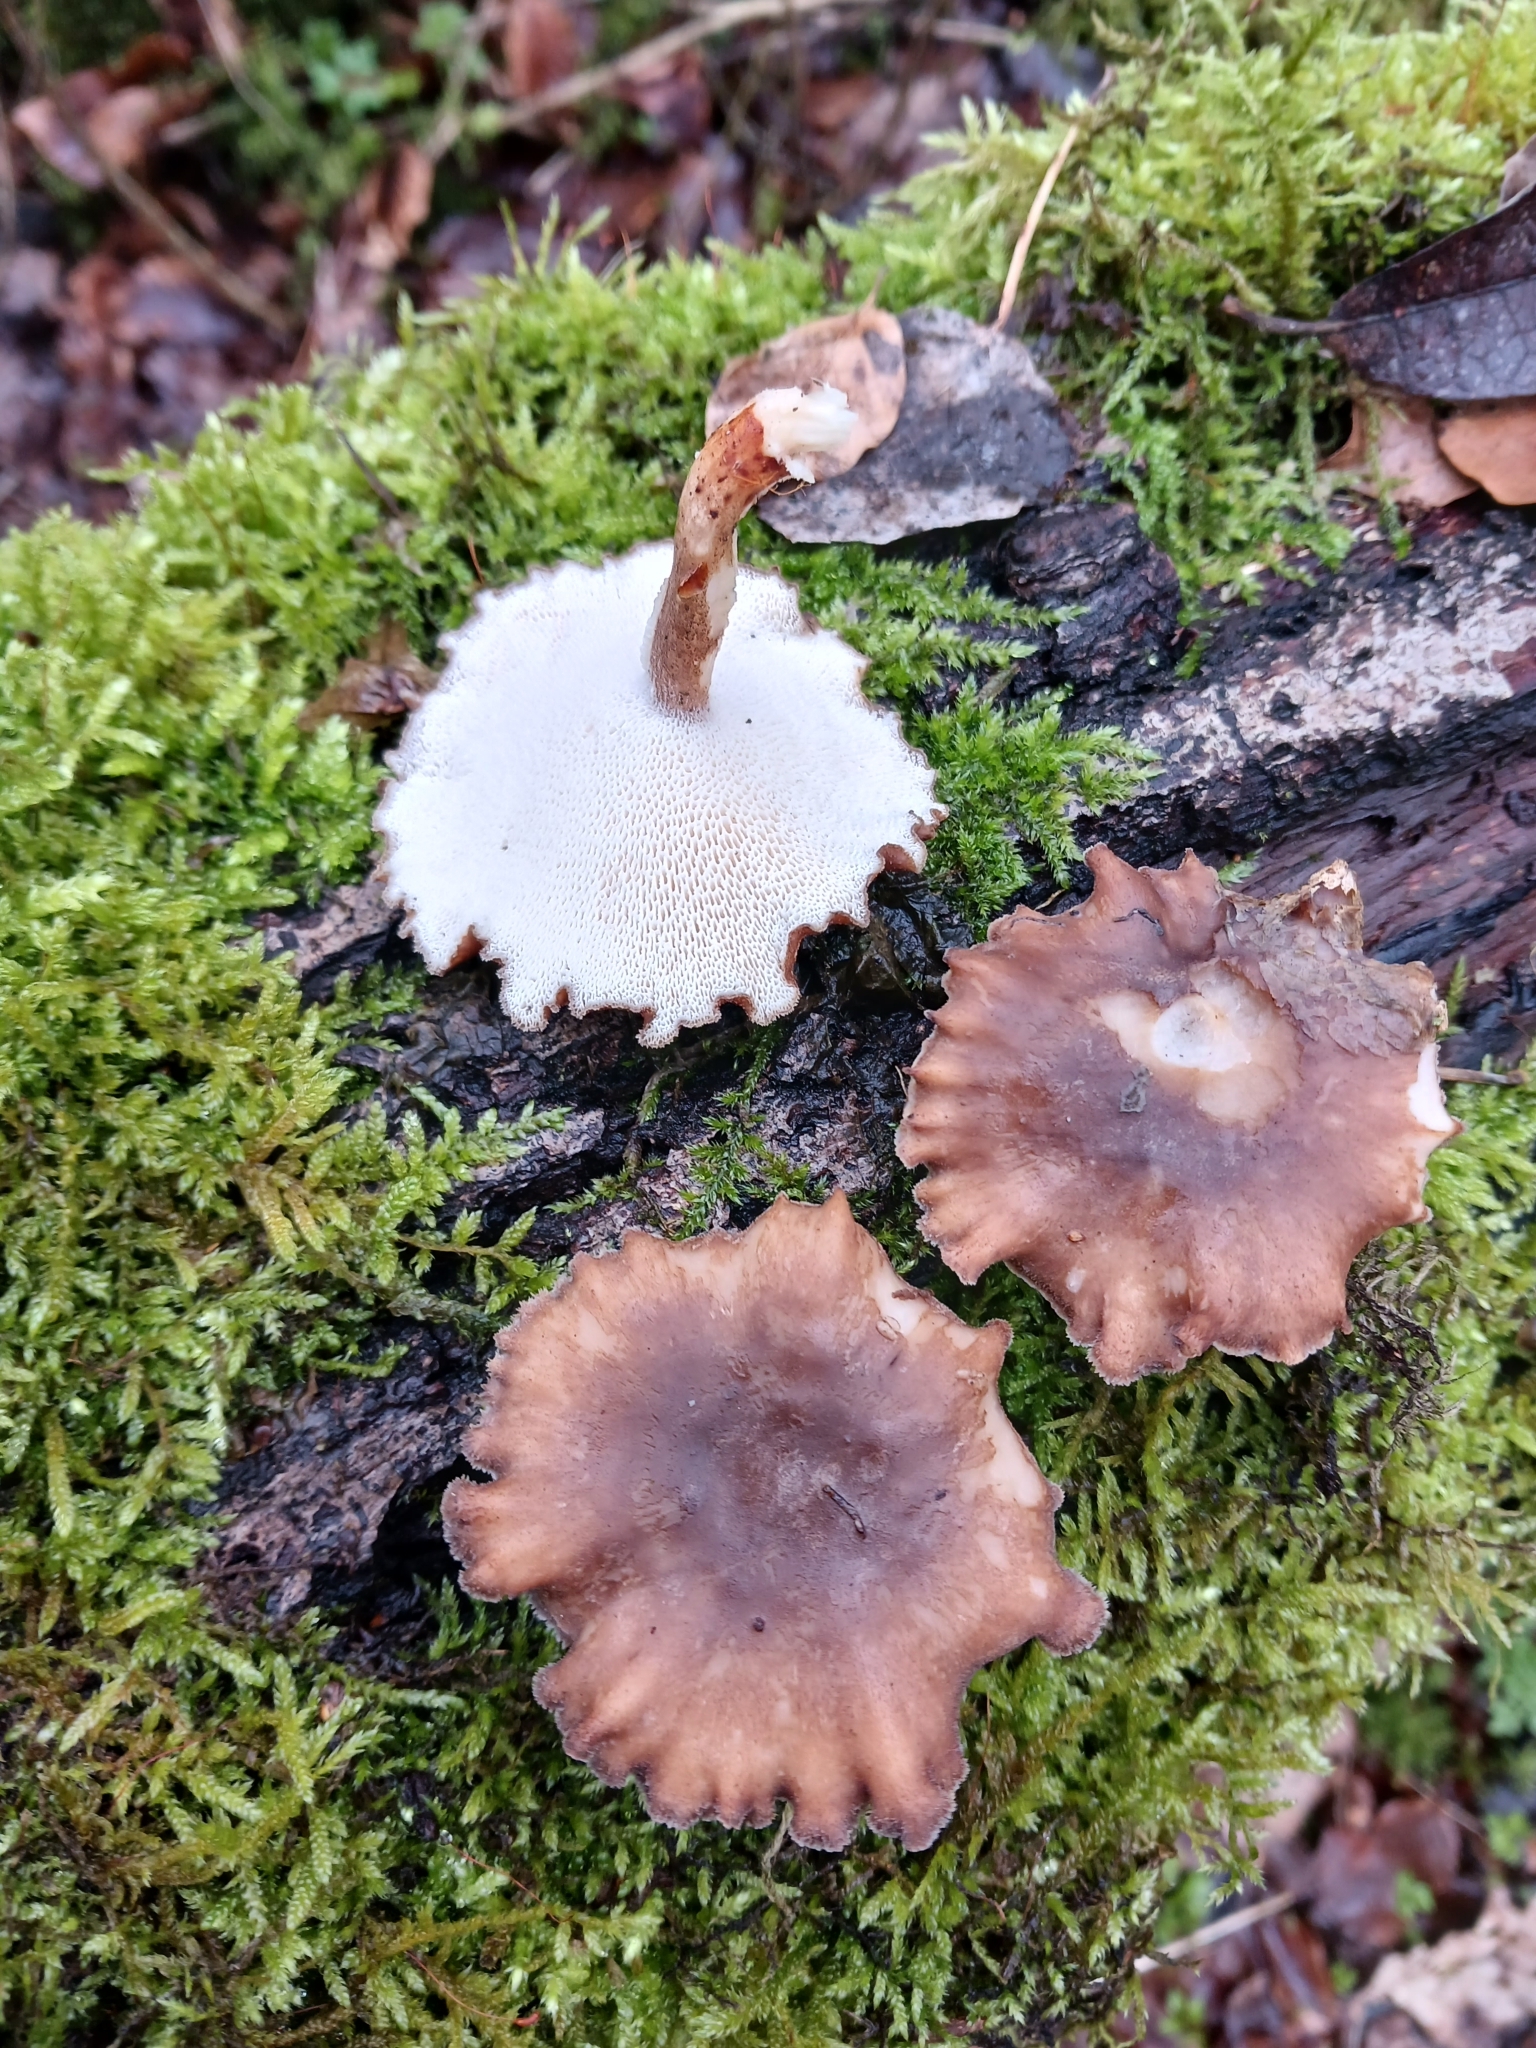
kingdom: Fungi
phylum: Basidiomycota
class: Agaricomycetes
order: Polyporales
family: Polyporaceae
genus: Lentinus
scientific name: Lentinus brumalis
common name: Winter polypore
